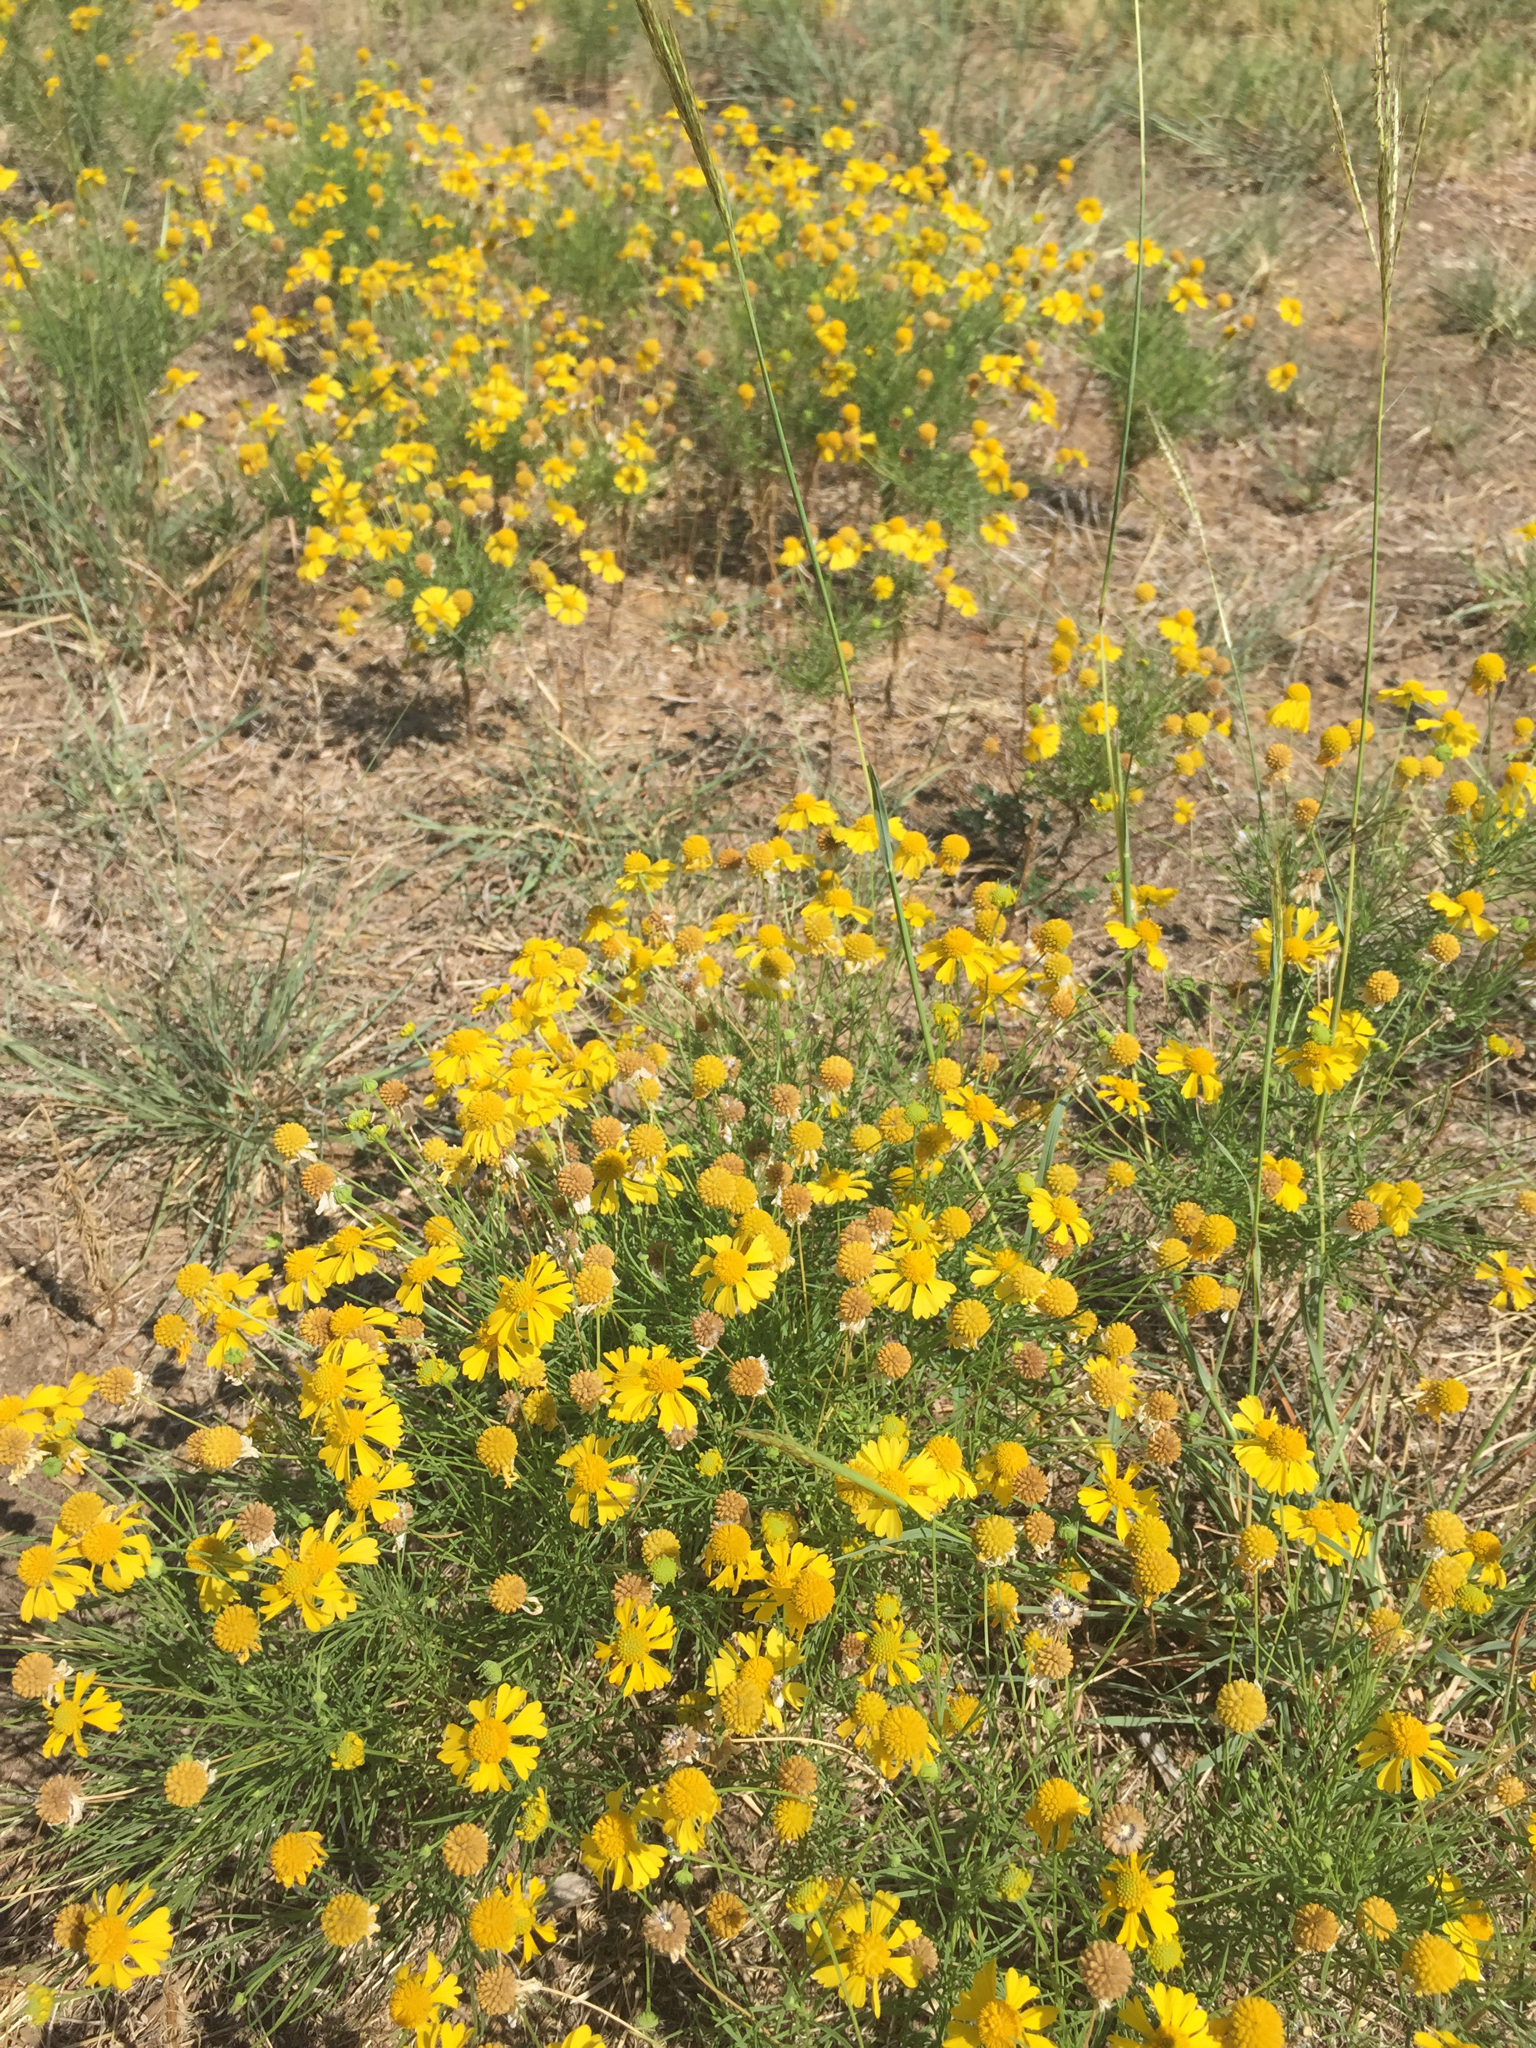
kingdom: Plantae
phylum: Tracheophyta
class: Magnoliopsida
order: Asterales
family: Asteraceae
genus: Helenium
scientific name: Helenium amarum
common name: Bitter sneezeweed
